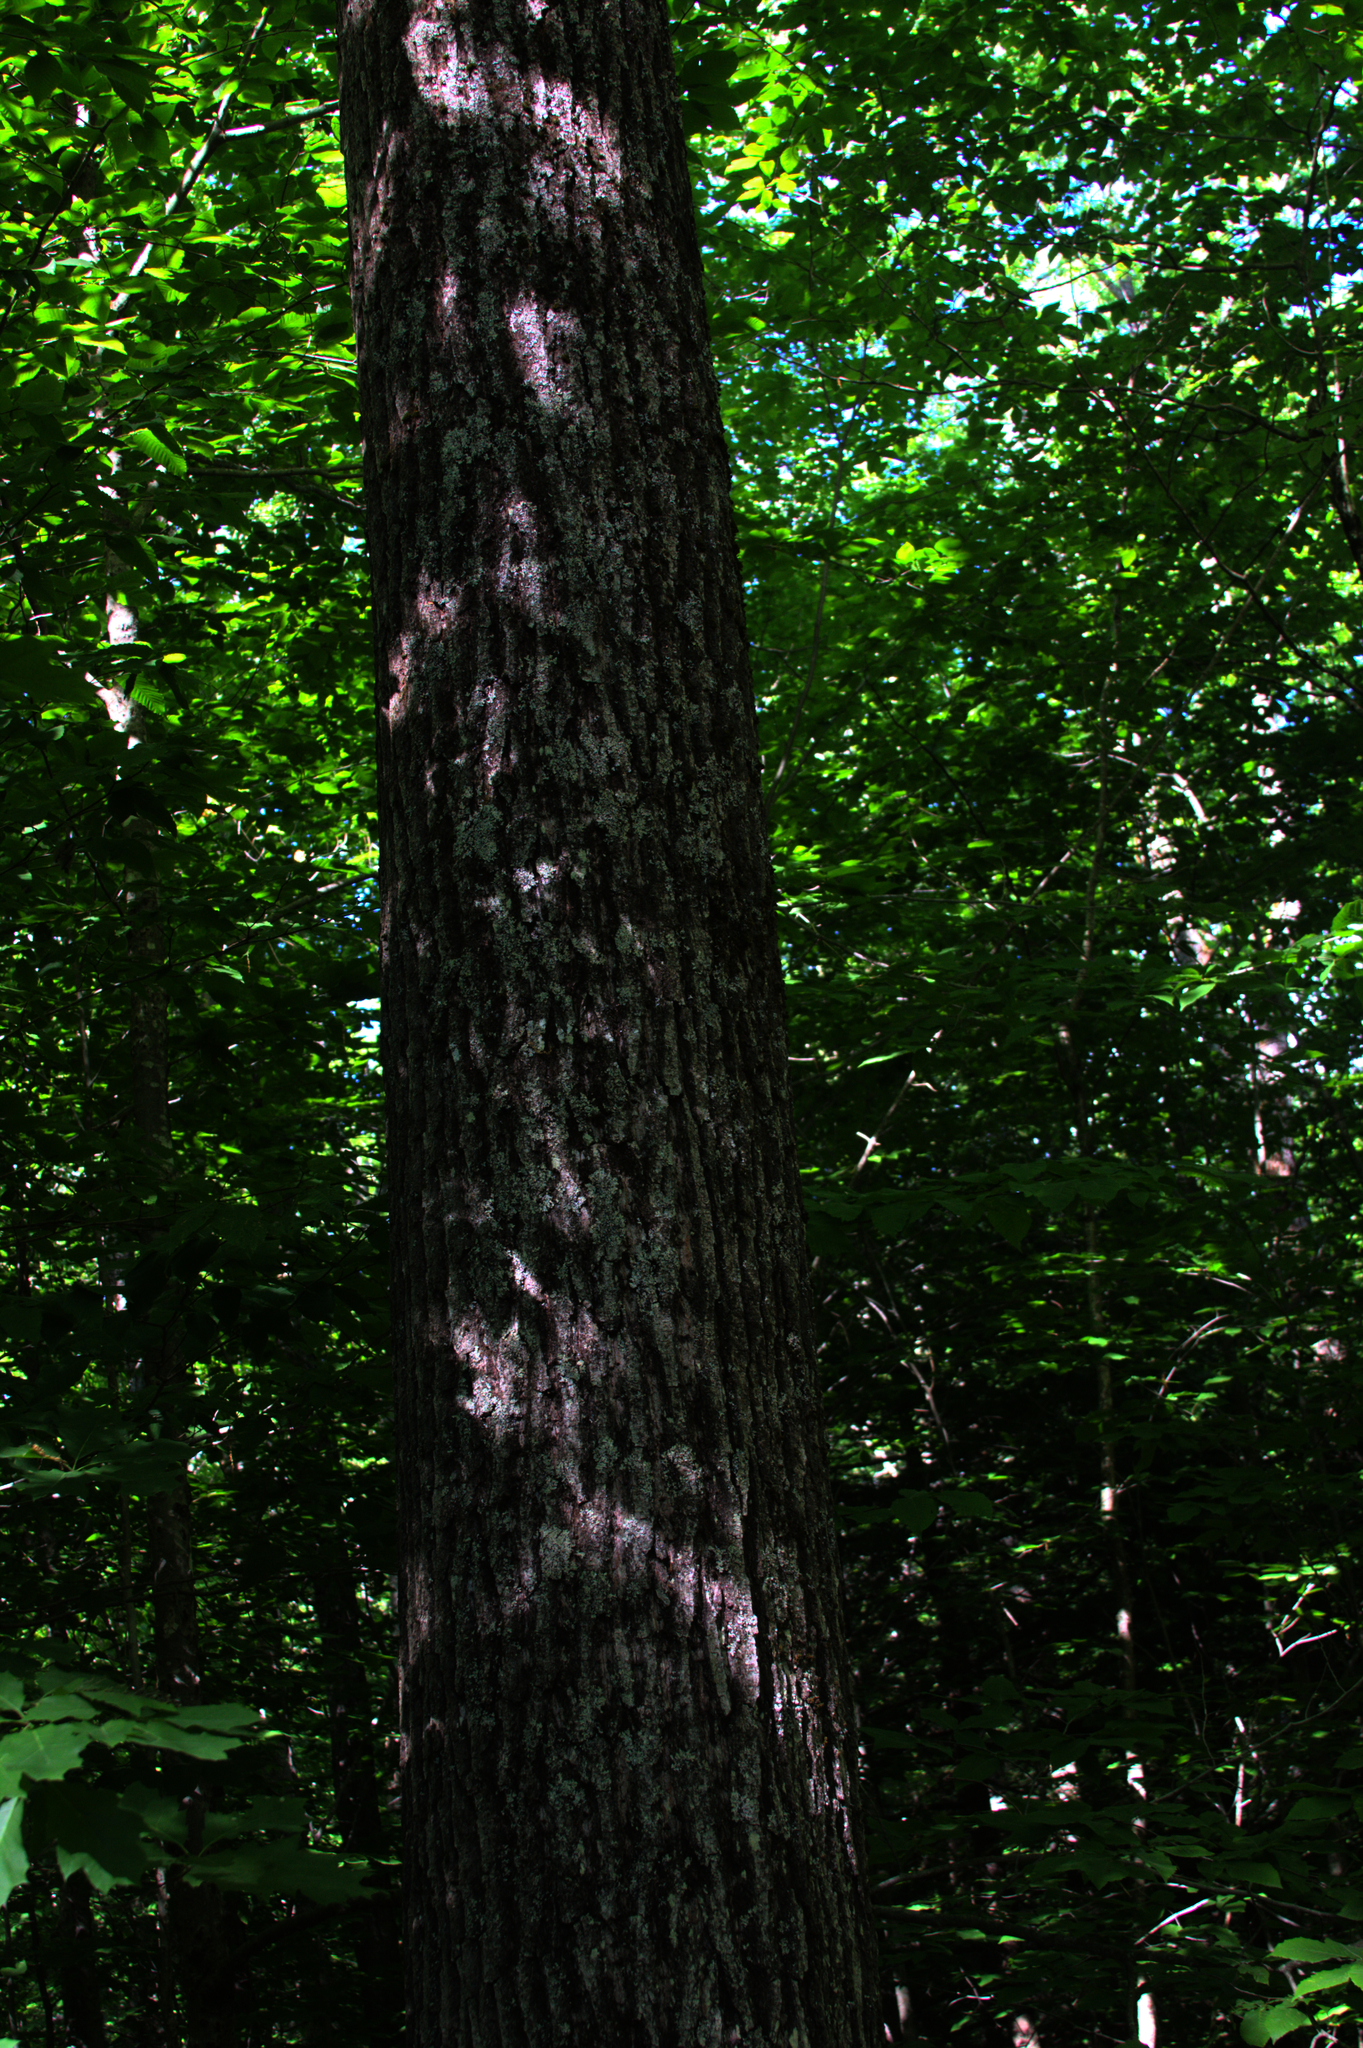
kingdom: Plantae
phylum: Tracheophyta
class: Magnoliopsida
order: Fagales
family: Fagaceae
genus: Quercus
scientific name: Quercus rubra
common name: Red oak
